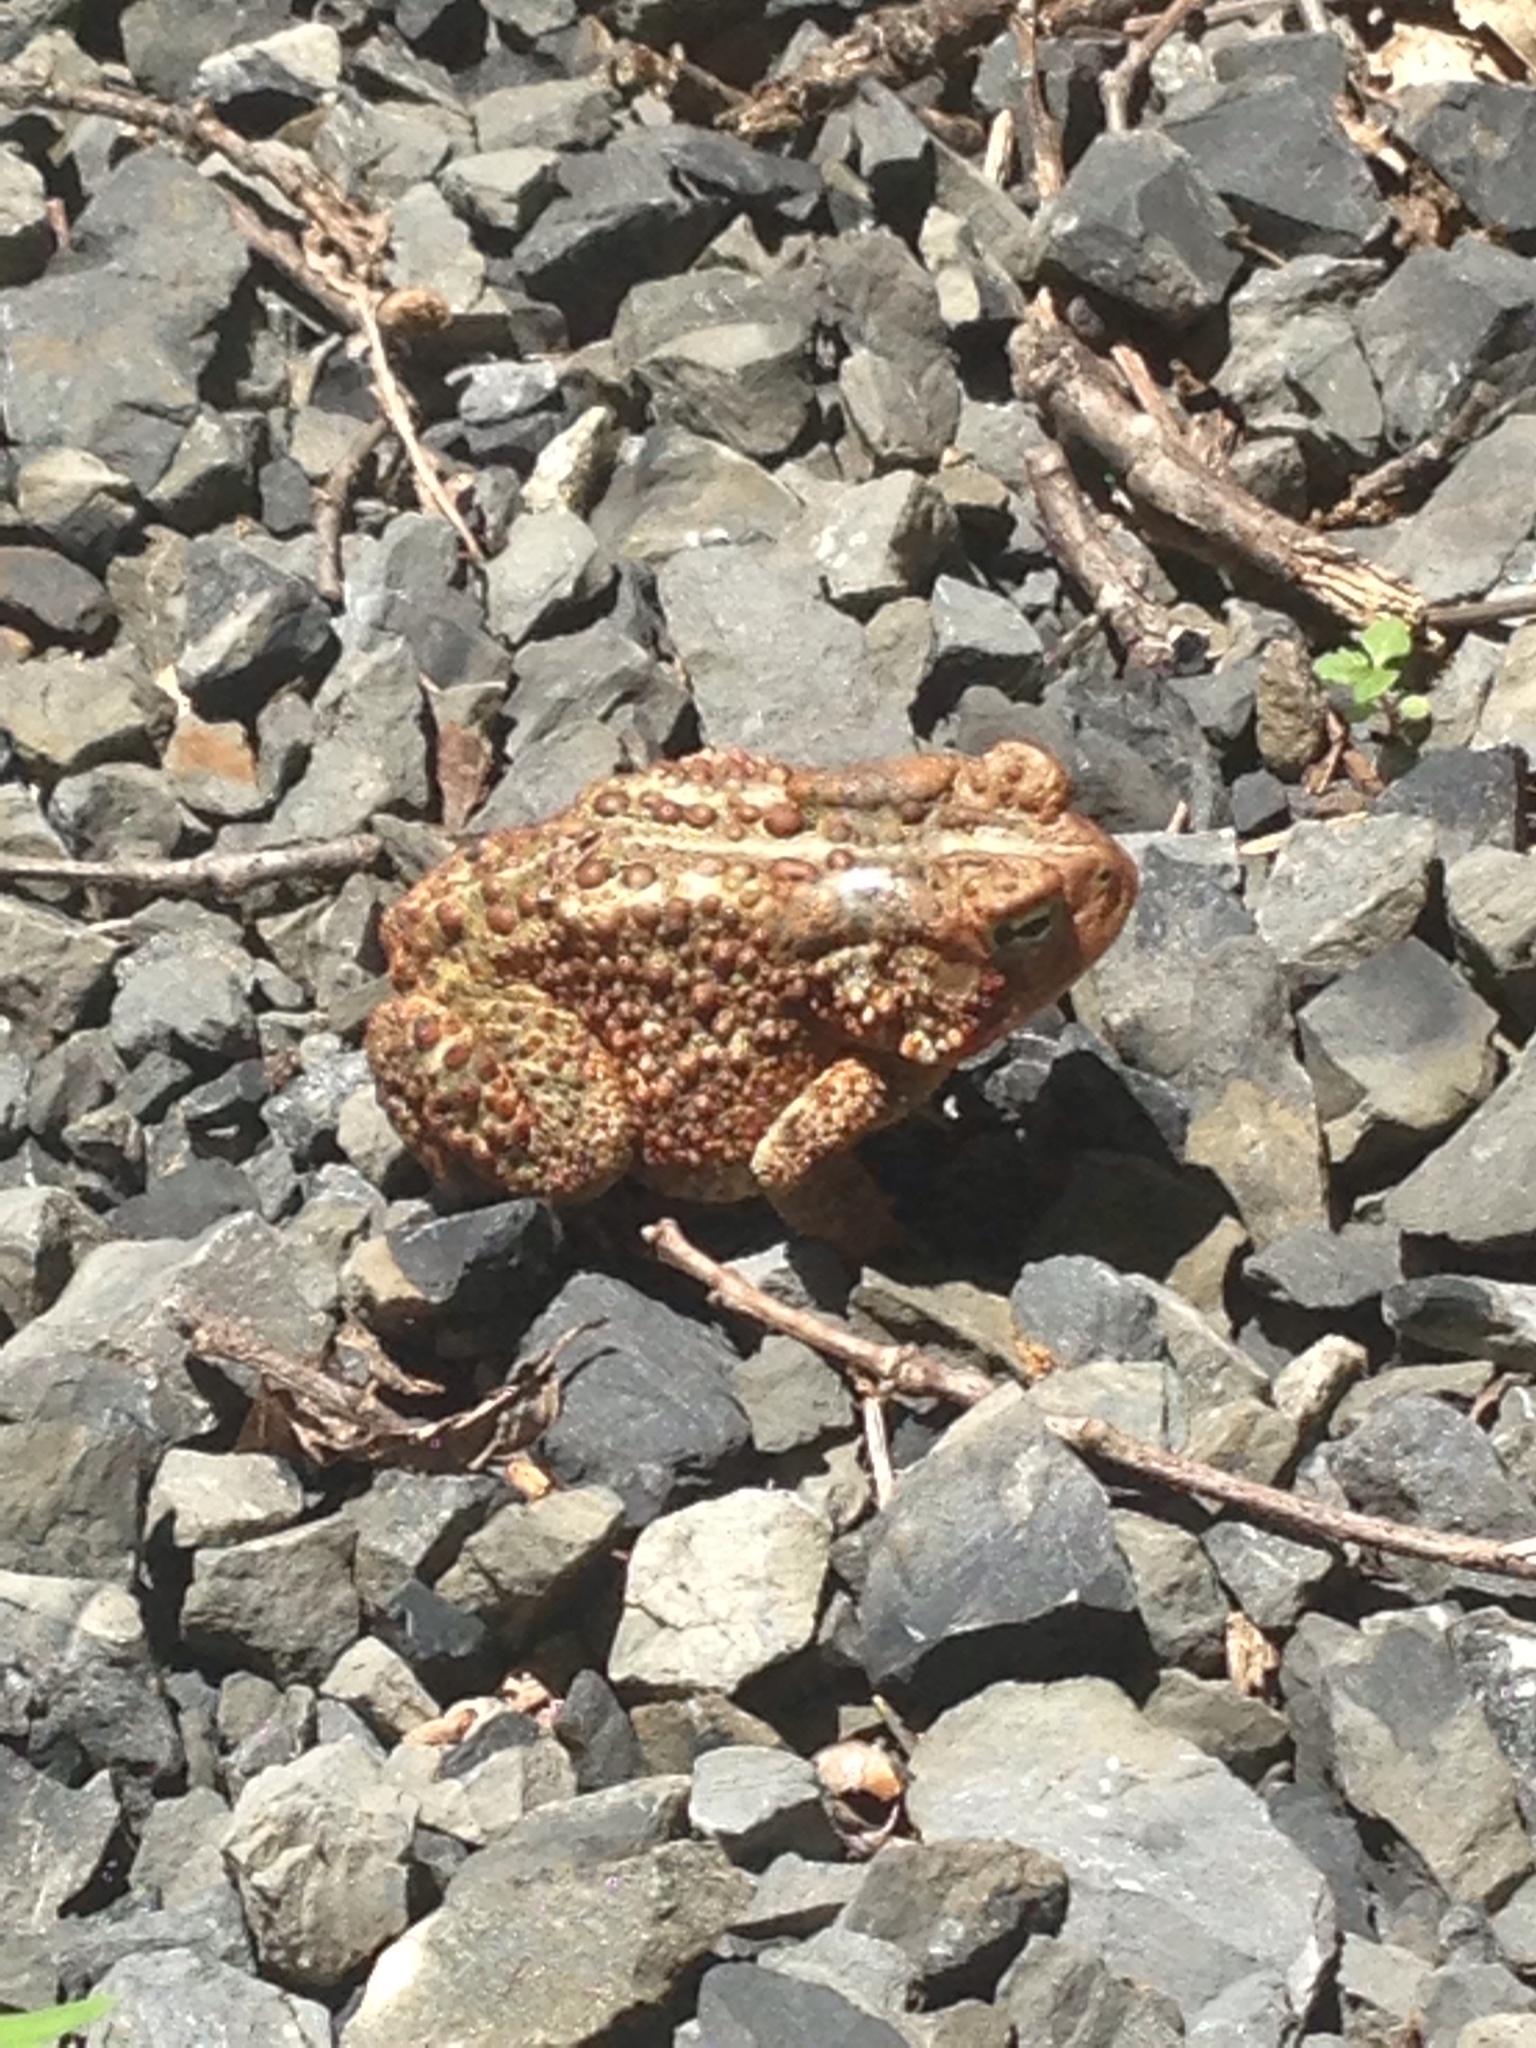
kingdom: Animalia
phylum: Chordata
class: Amphibia
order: Anura
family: Bufonidae
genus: Anaxyrus
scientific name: Anaxyrus americanus
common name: American toad
